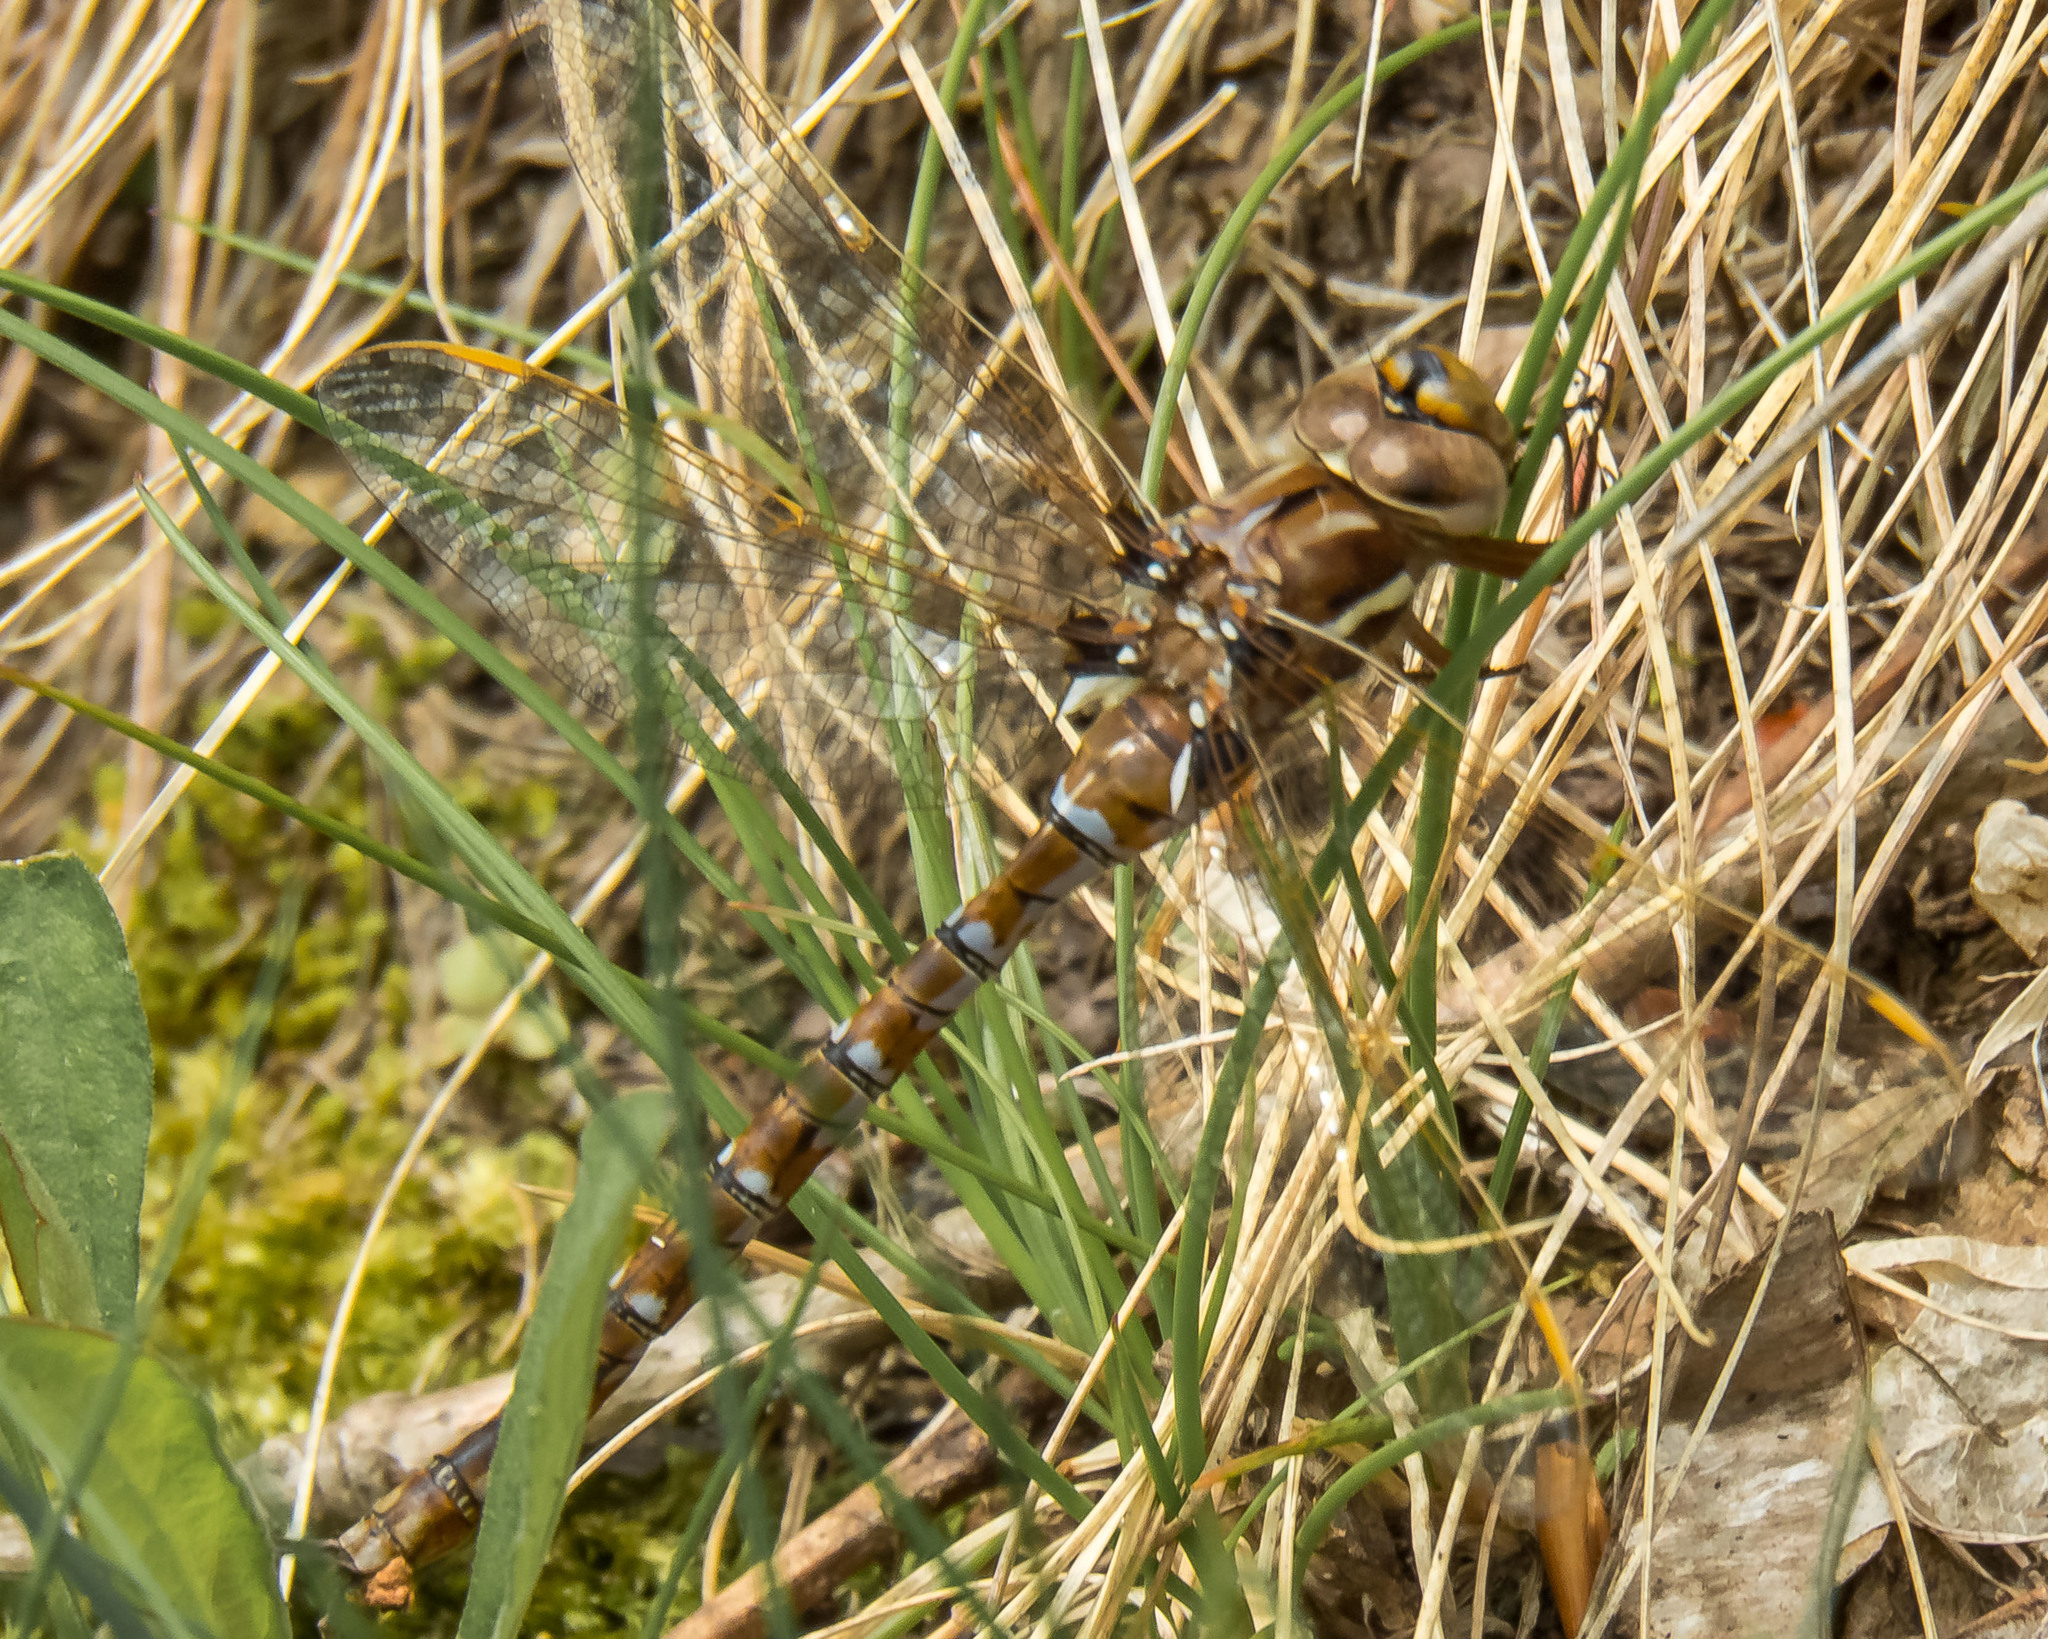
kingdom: Animalia
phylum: Arthropoda
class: Insecta
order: Odonata
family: Aeshnidae
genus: Basiaeschna
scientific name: Basiaeschna janata
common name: Springtime darner
